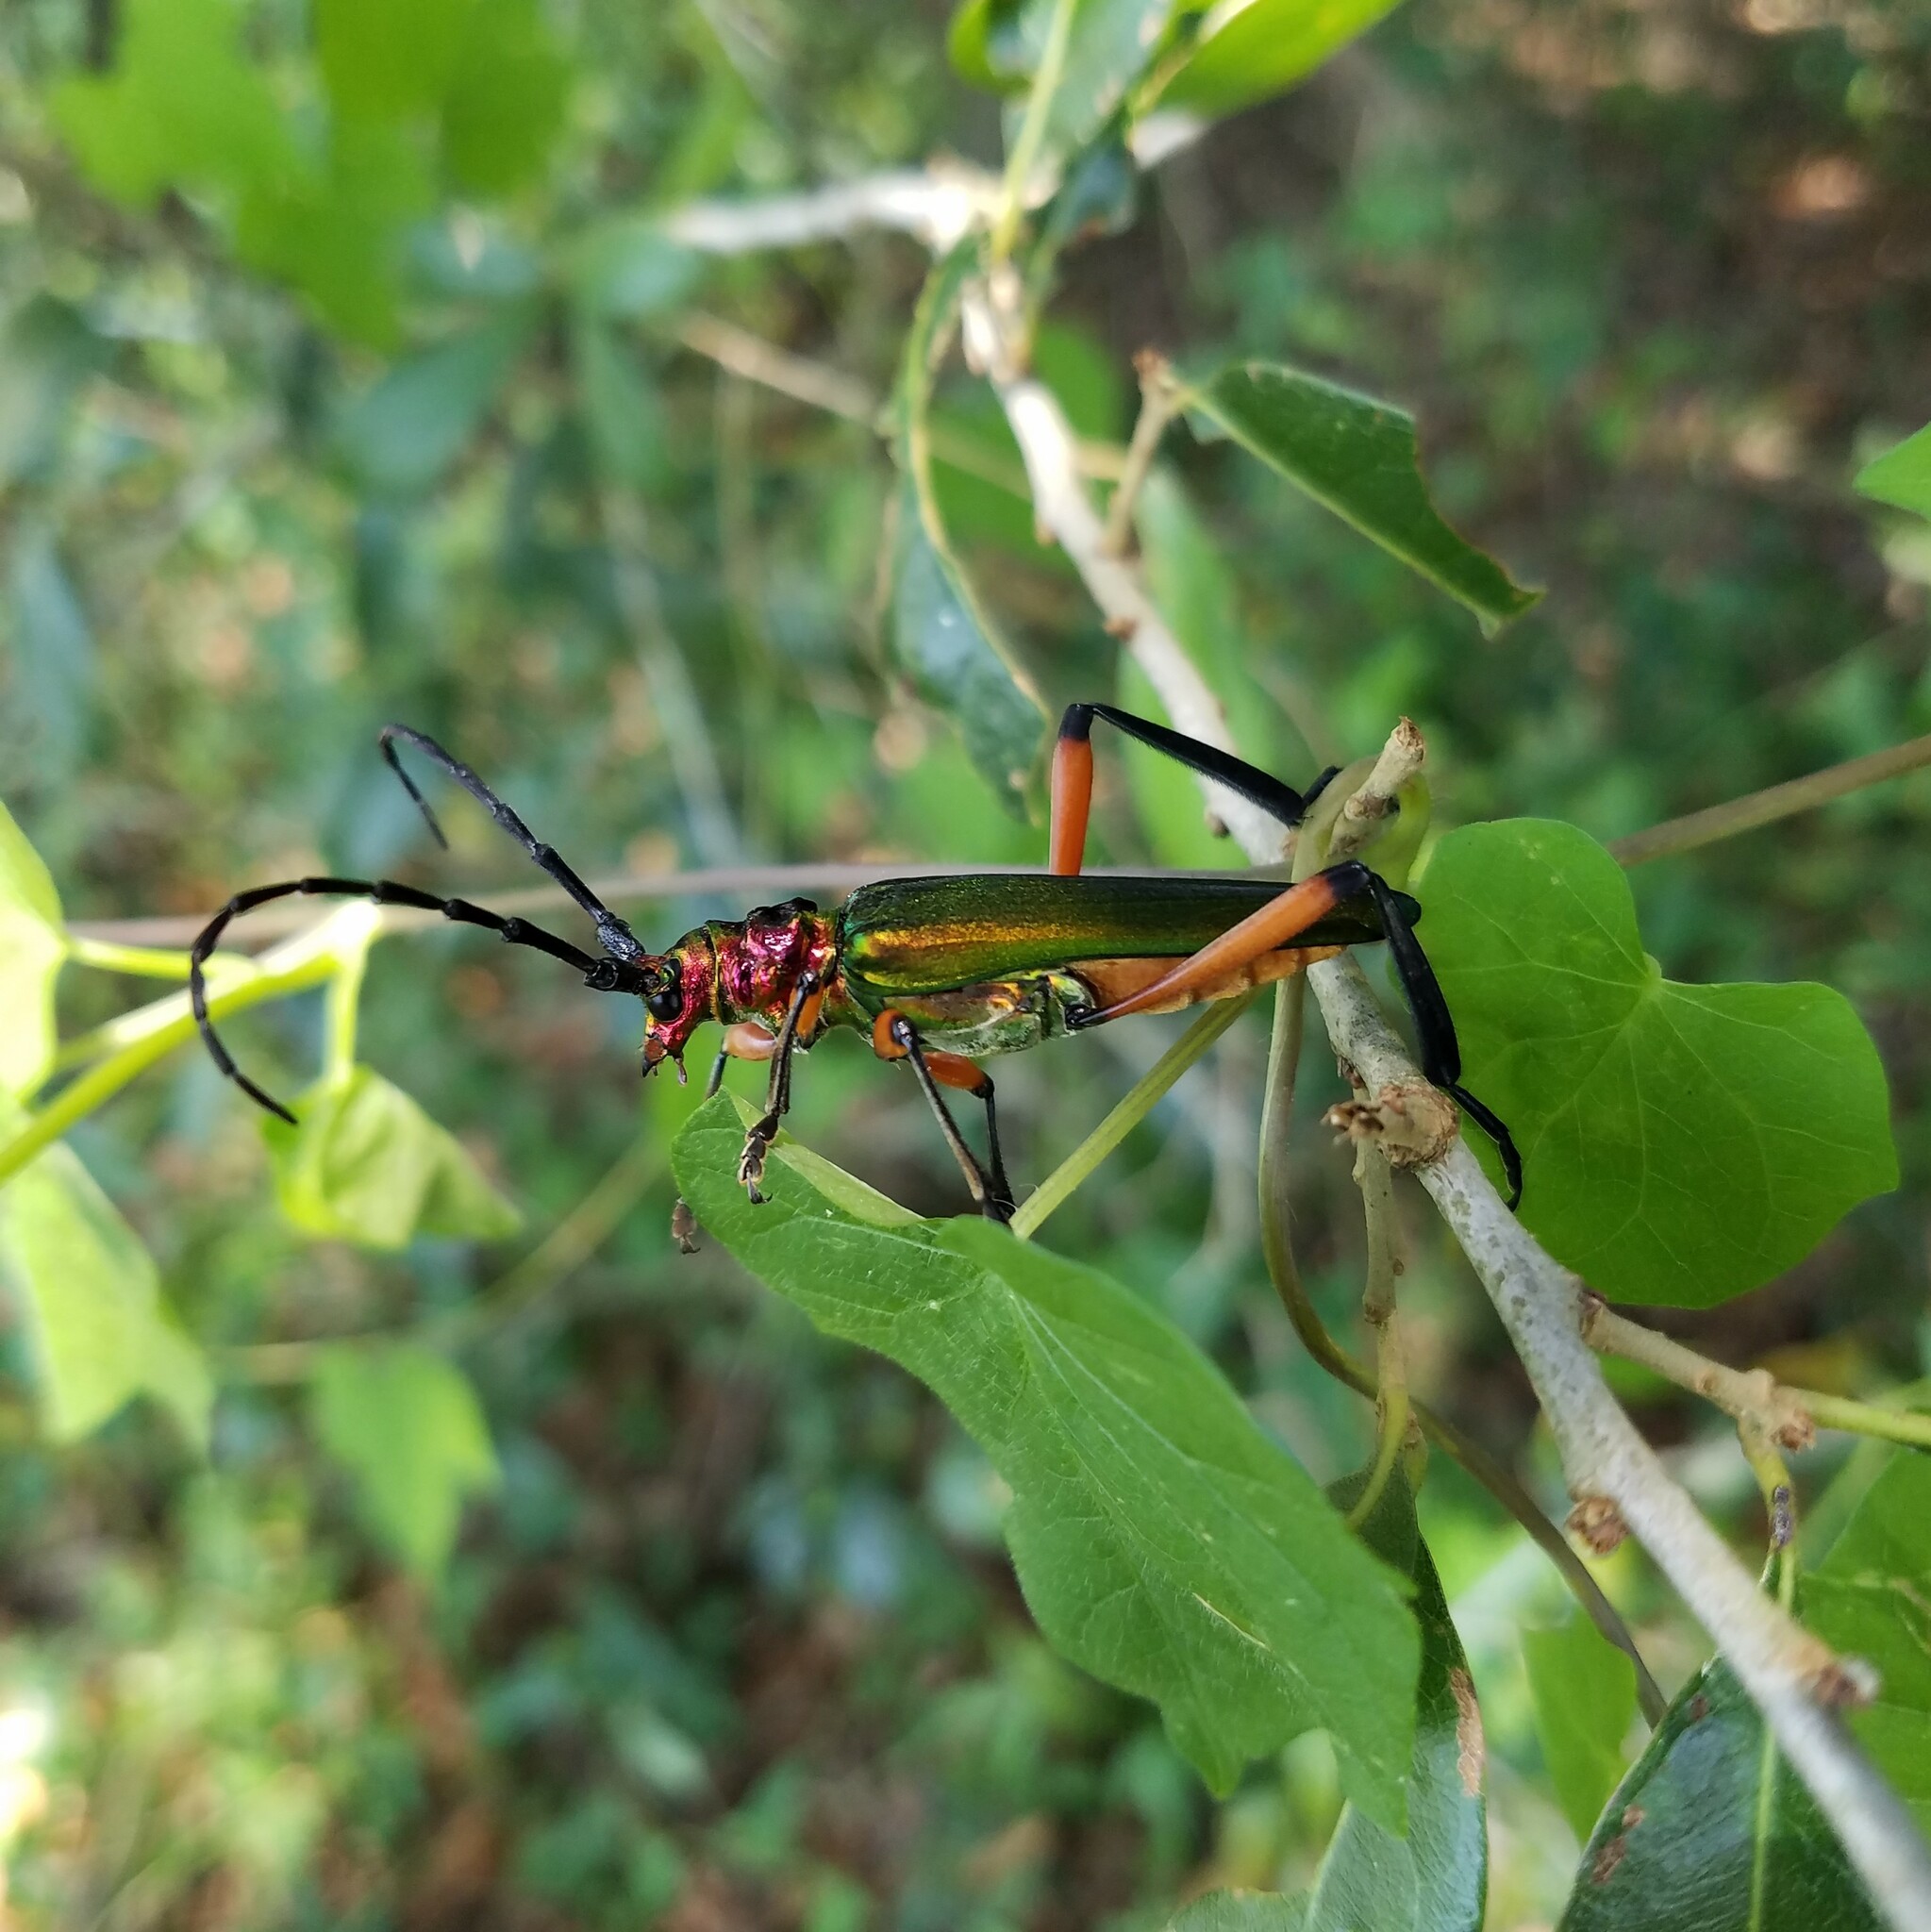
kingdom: Animalia
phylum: Arthropoda
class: Insecta
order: Coleoptera
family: Cerambycidae
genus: Plinthocoelium
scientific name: Plinthocoelium suaveolens
